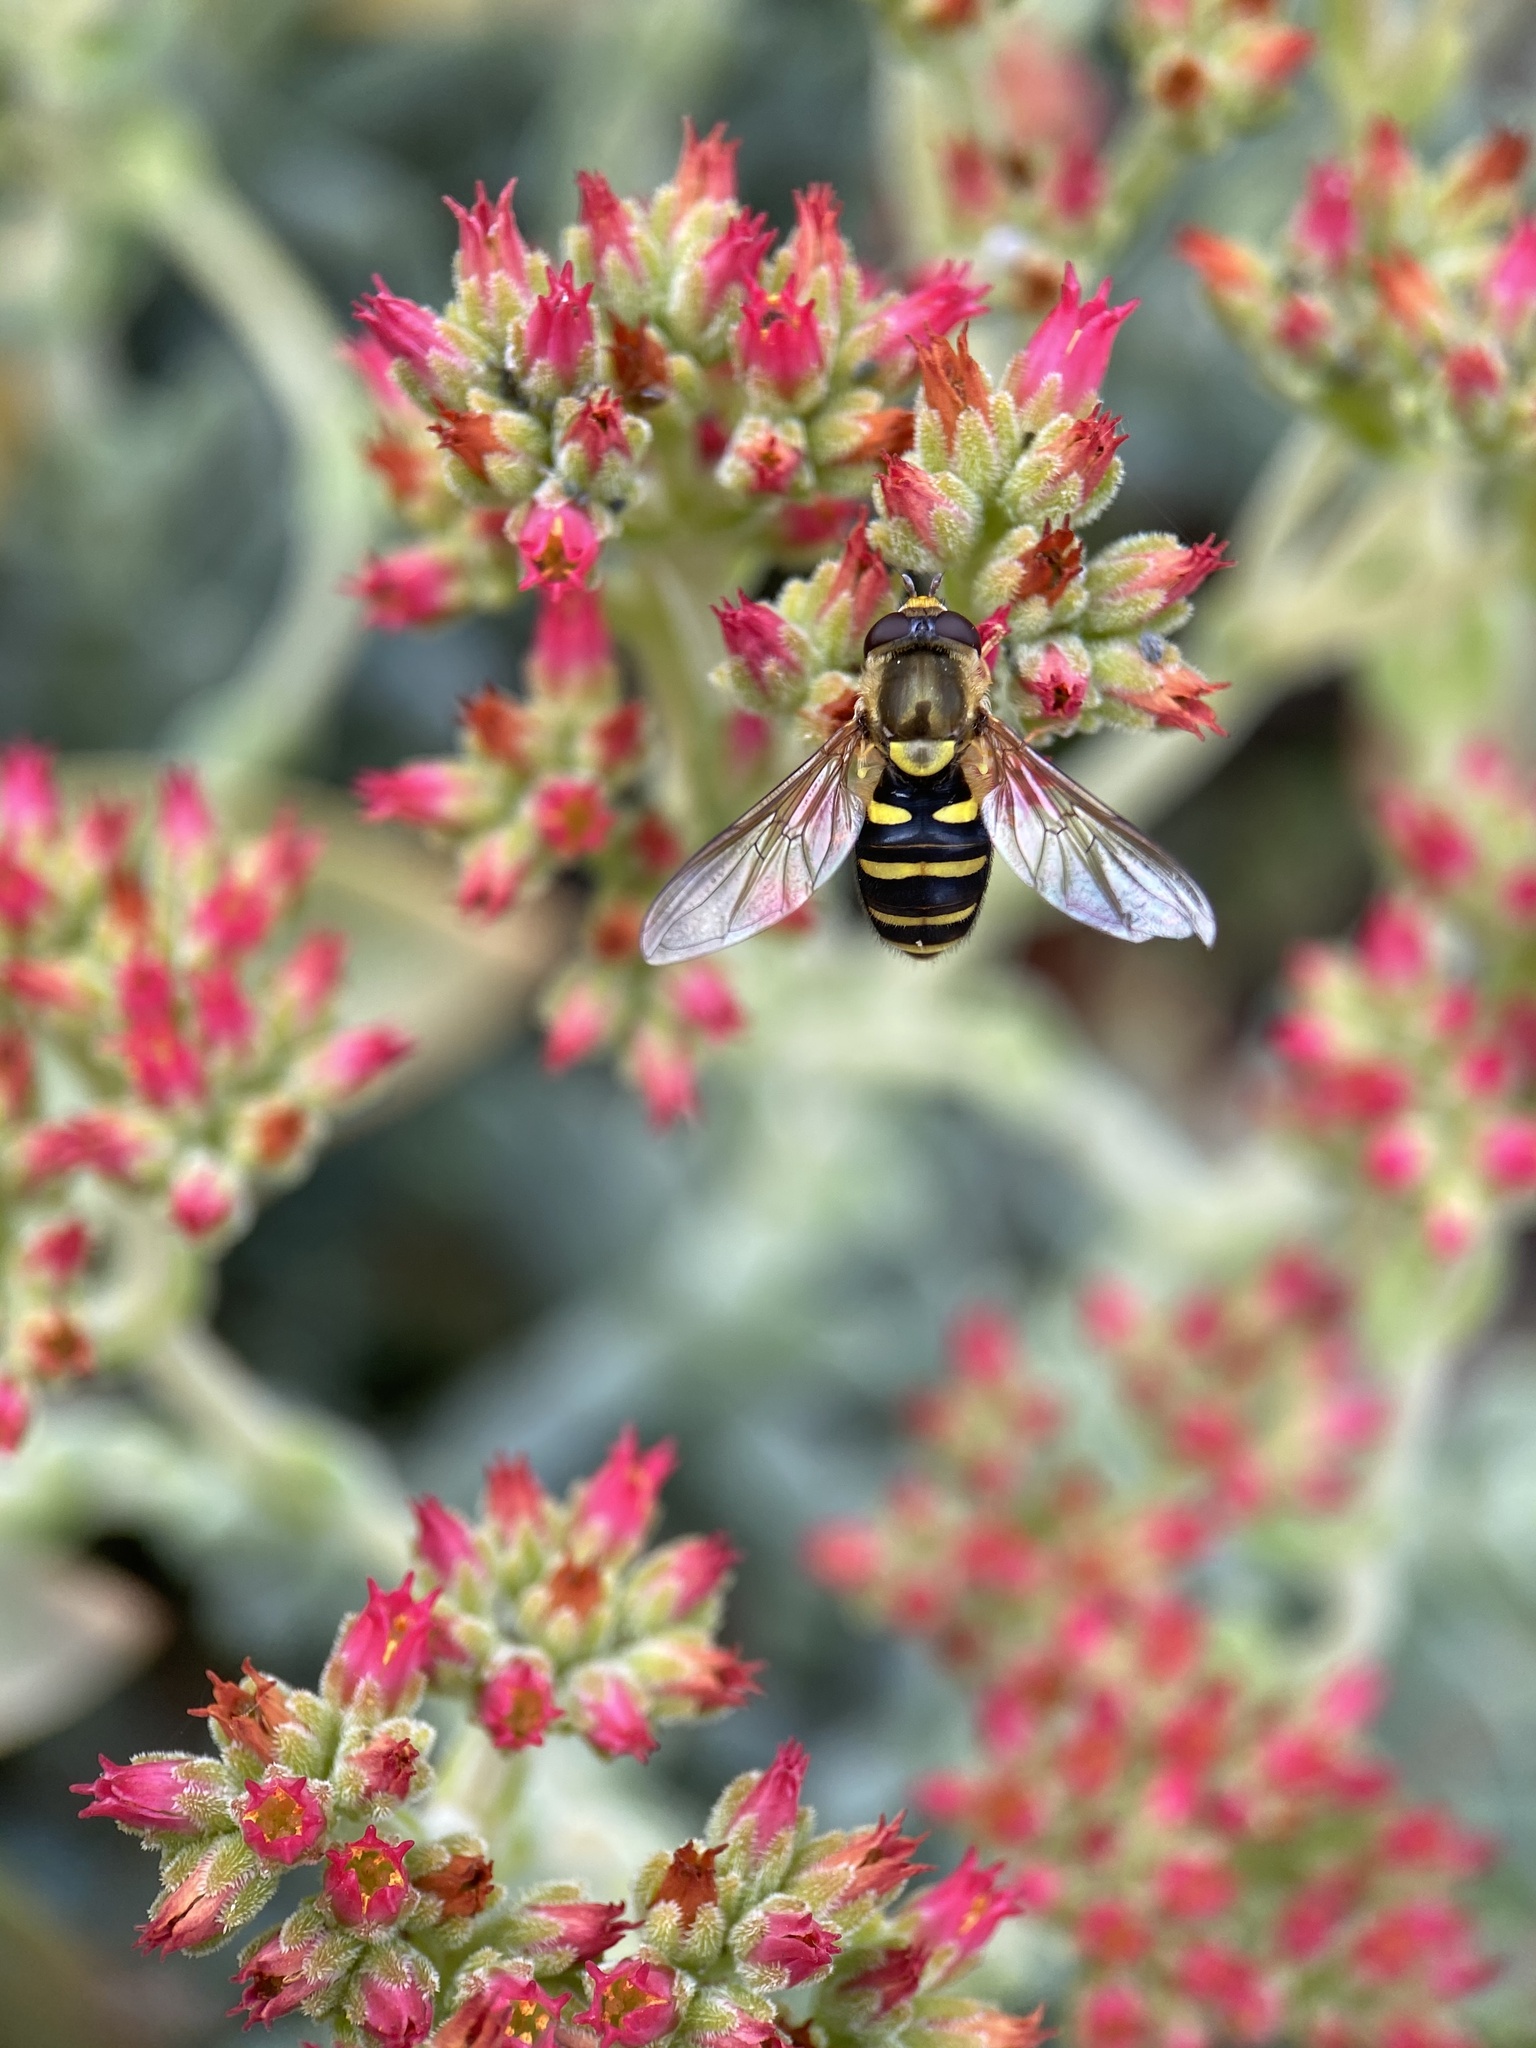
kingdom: Animalia
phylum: Arthropoda
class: Insecta
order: Diptera
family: Syrphidae
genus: Syrphus
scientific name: Syrphus opinator
